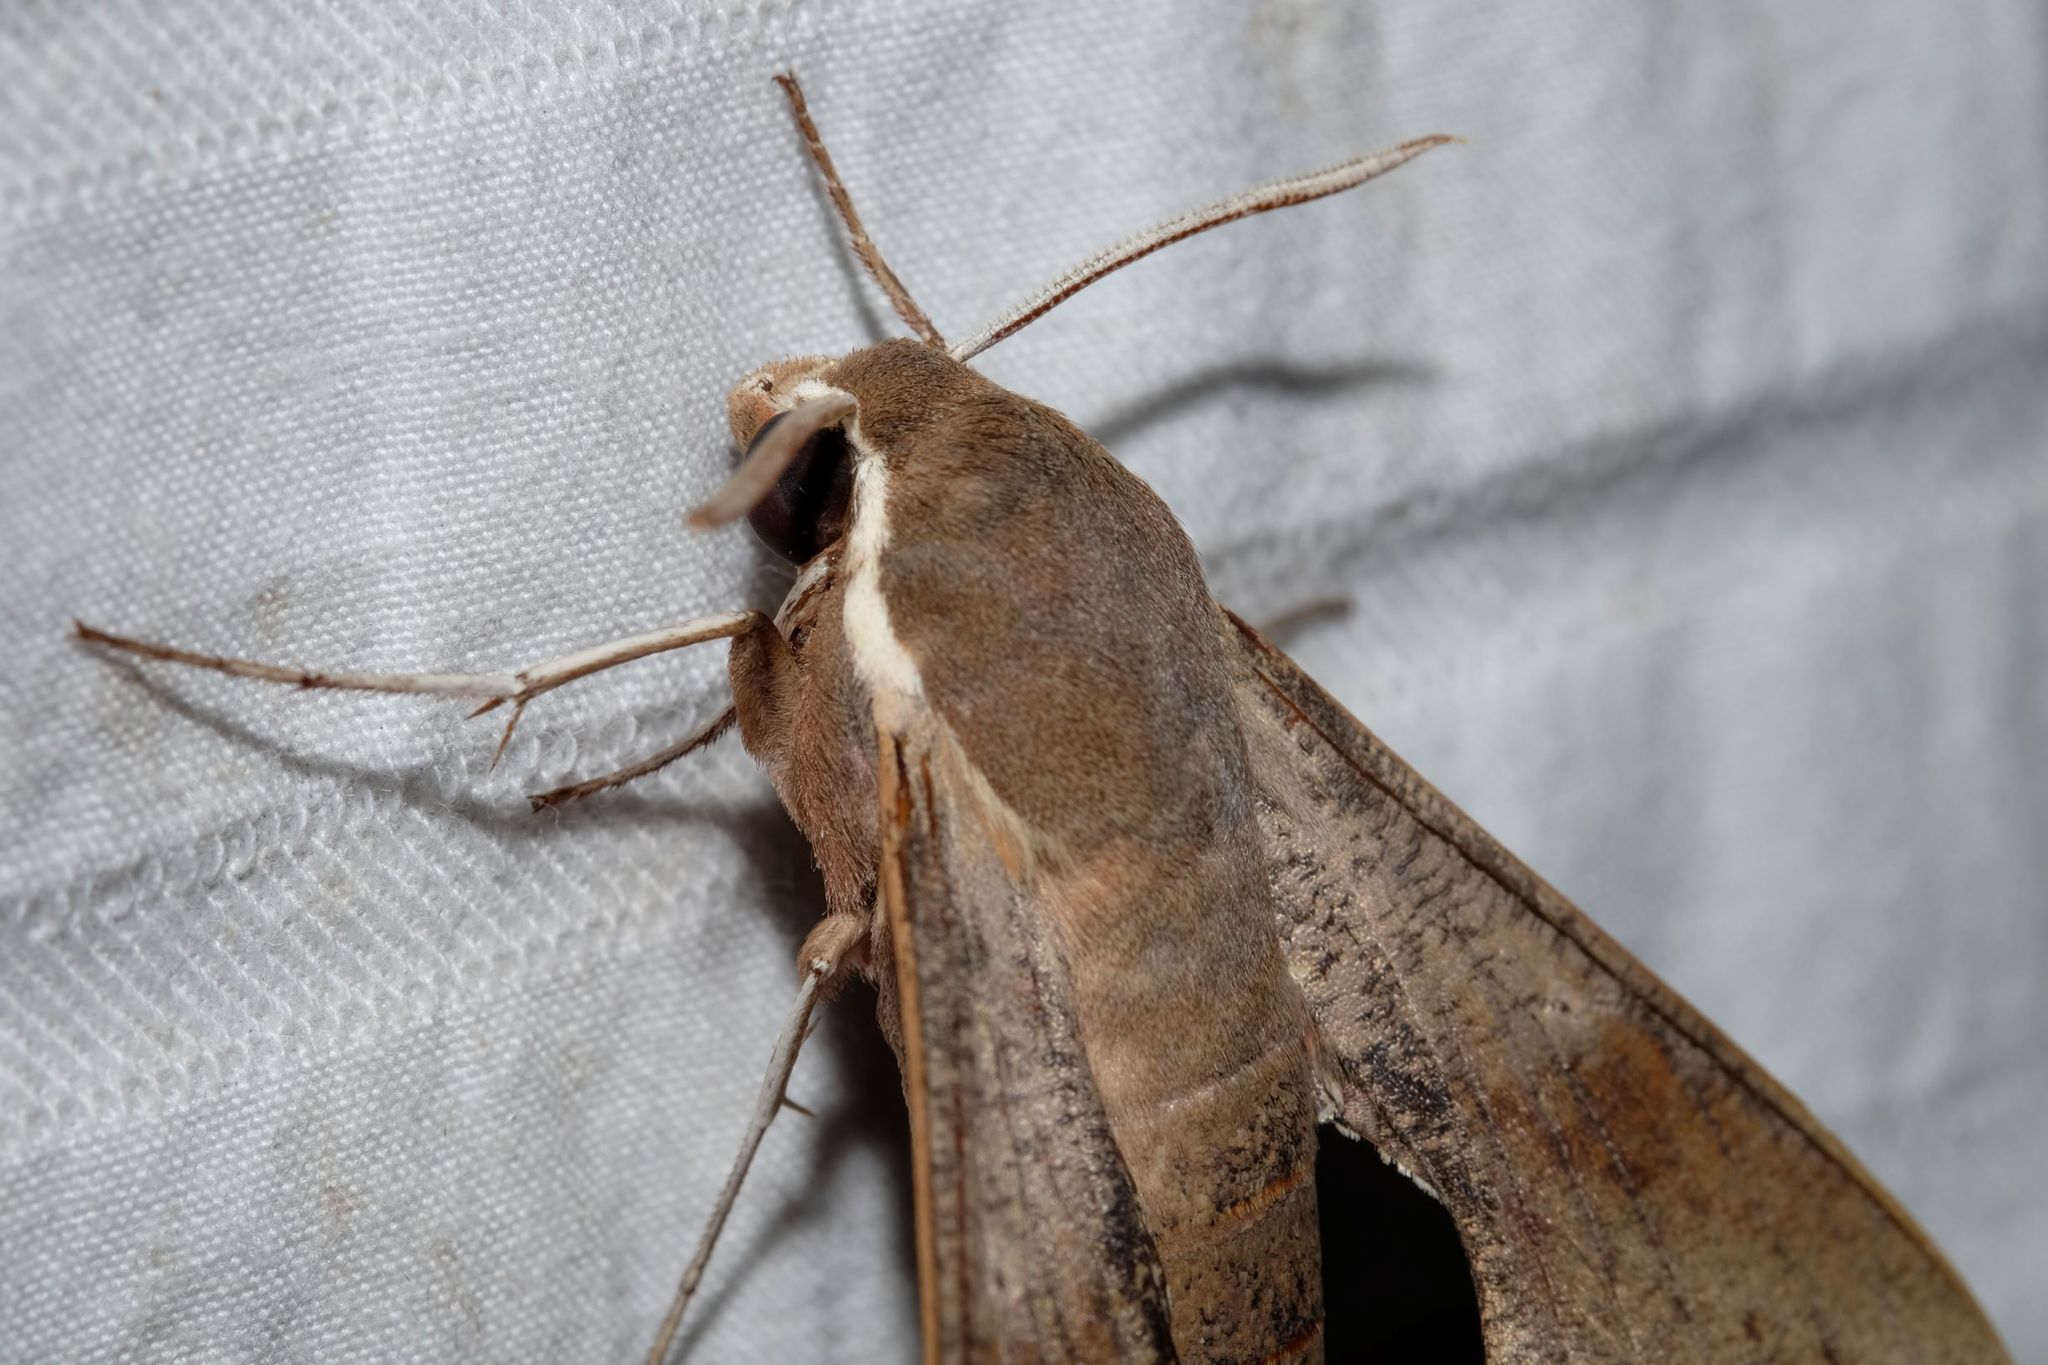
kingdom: Animalia
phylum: Arthropoda
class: Insecta
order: Lepidoptera
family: Sphingidae
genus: Hippotion
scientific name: Hippotion scrofa
